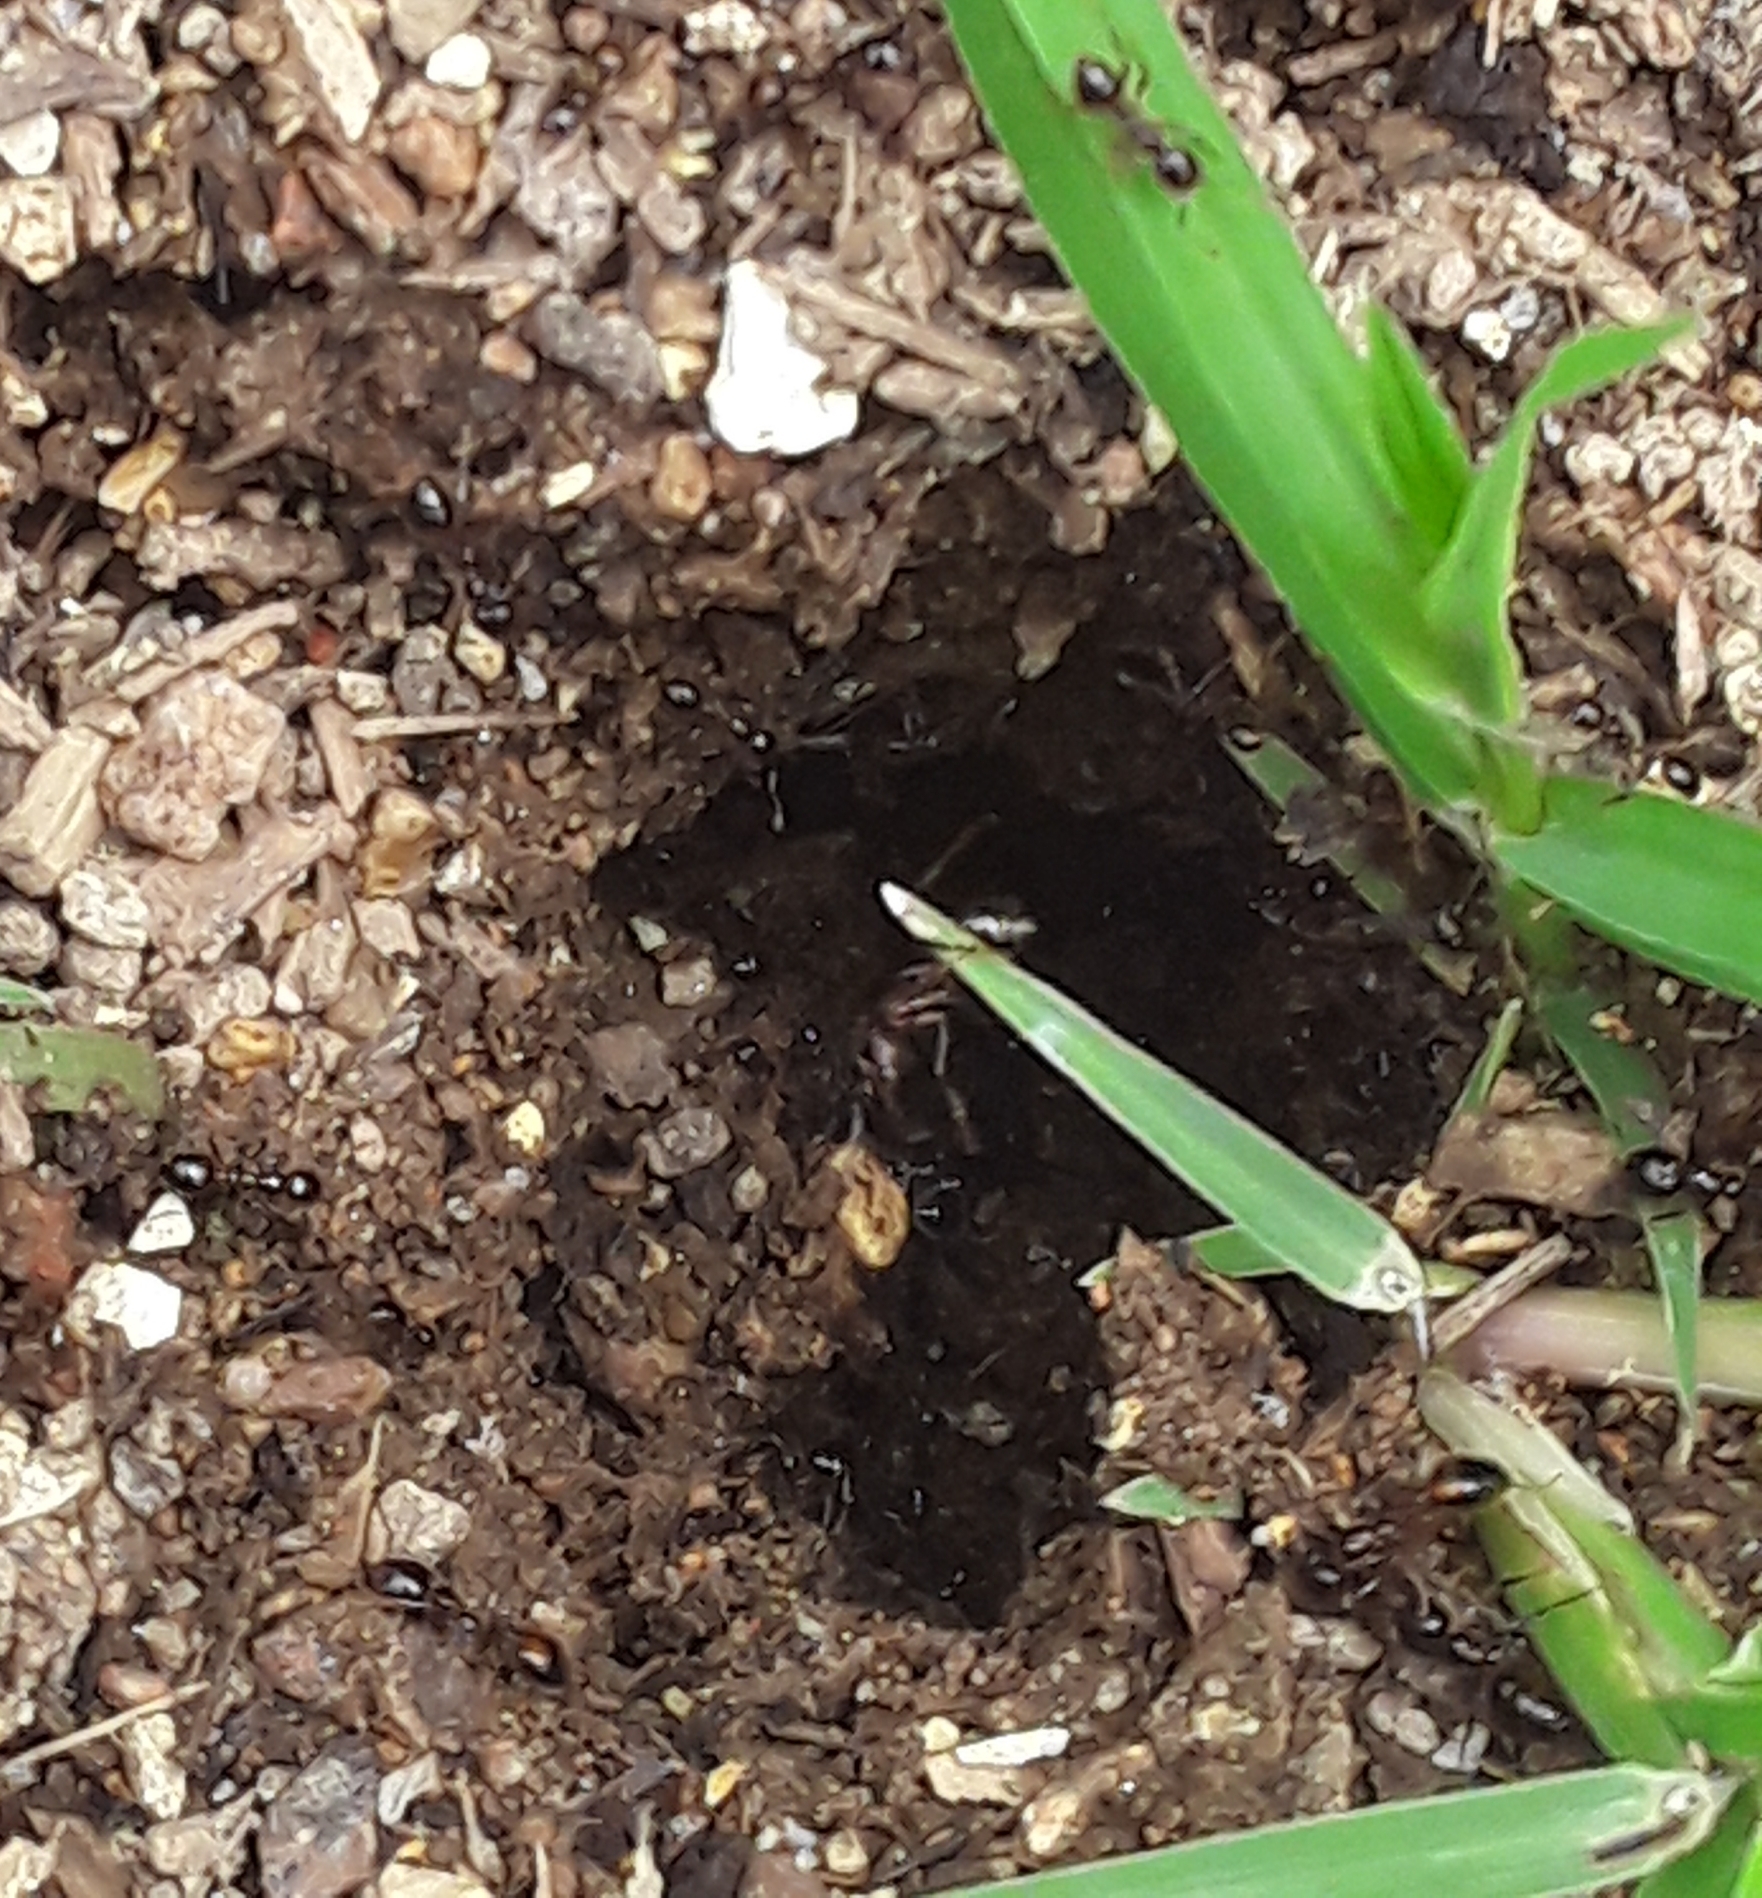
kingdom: Animalia
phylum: Arthropoda
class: Insecta
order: Hymenoptera
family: Formicidae
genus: Solenopsis
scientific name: Solenopsis
